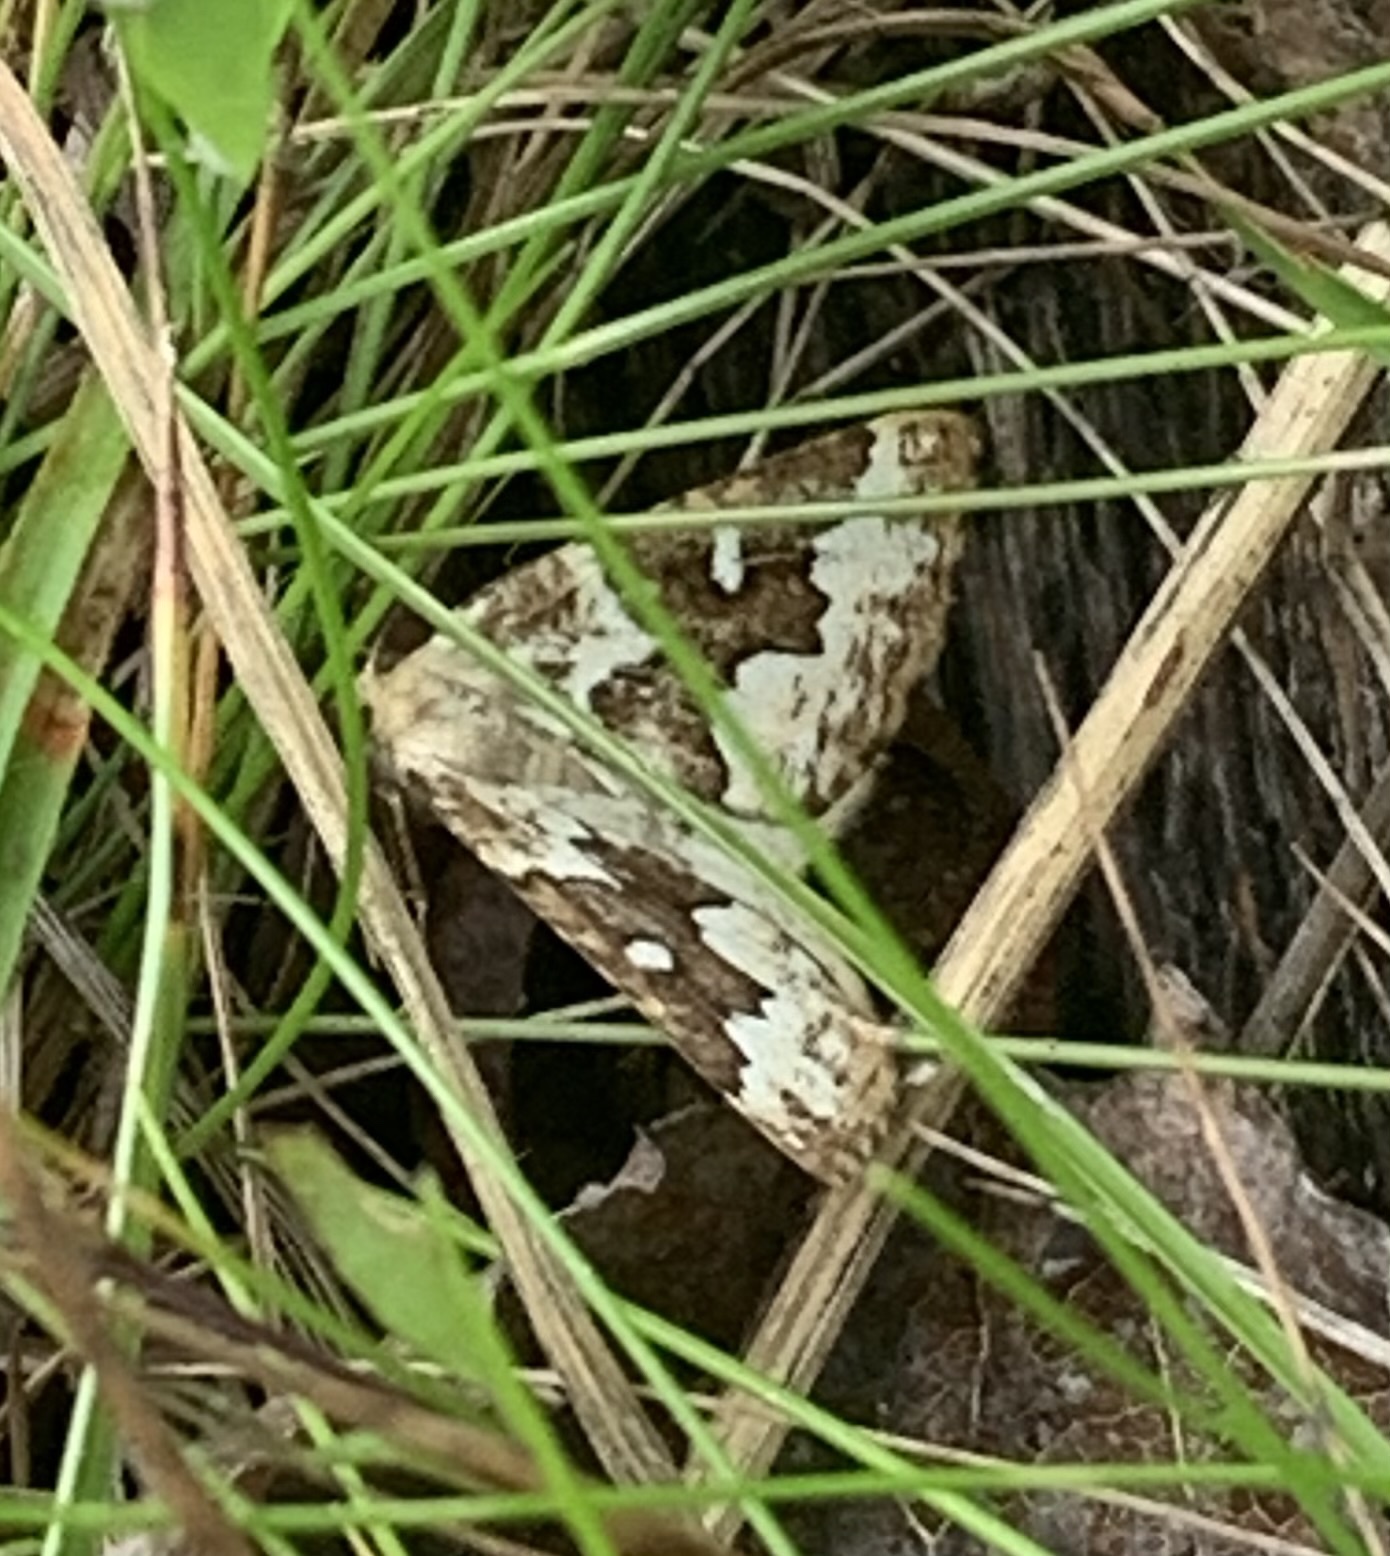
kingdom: Animalia
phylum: Arthropoda
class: Insecta
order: Lepidoptera
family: Geometridae
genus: Caripeta
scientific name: Caripeta divisata
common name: Gray spruce looper
